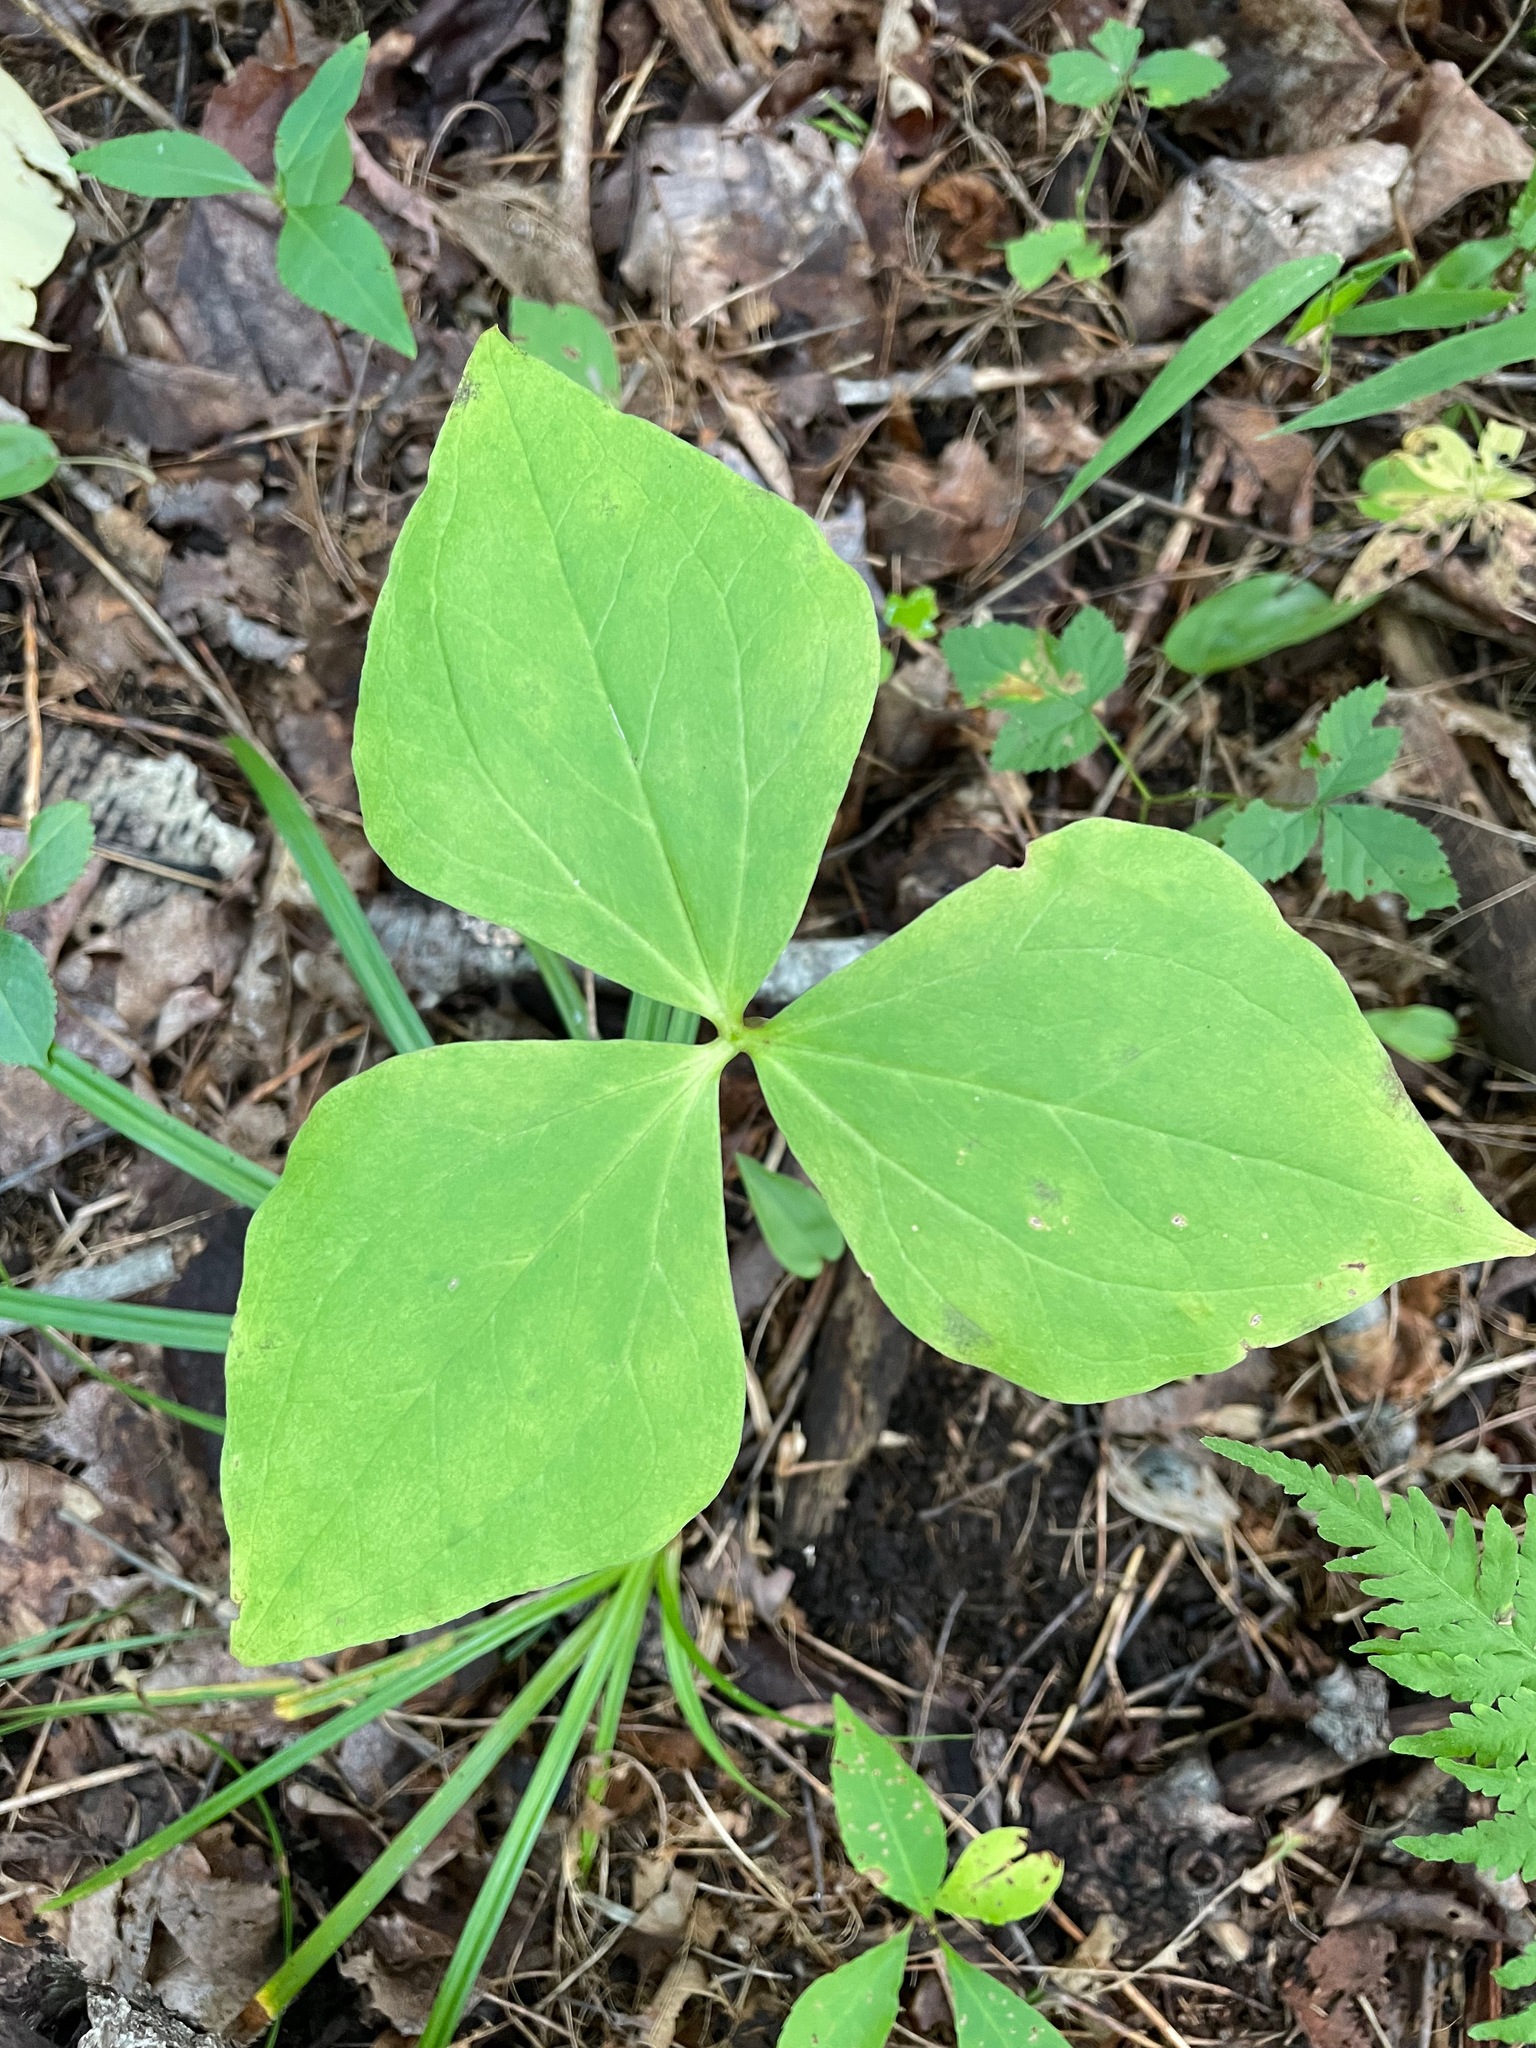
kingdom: Plantae
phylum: Tracheophyta
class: Liliopsida
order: Liliales
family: Melanthiaceae
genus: Trillium
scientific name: Trillium
